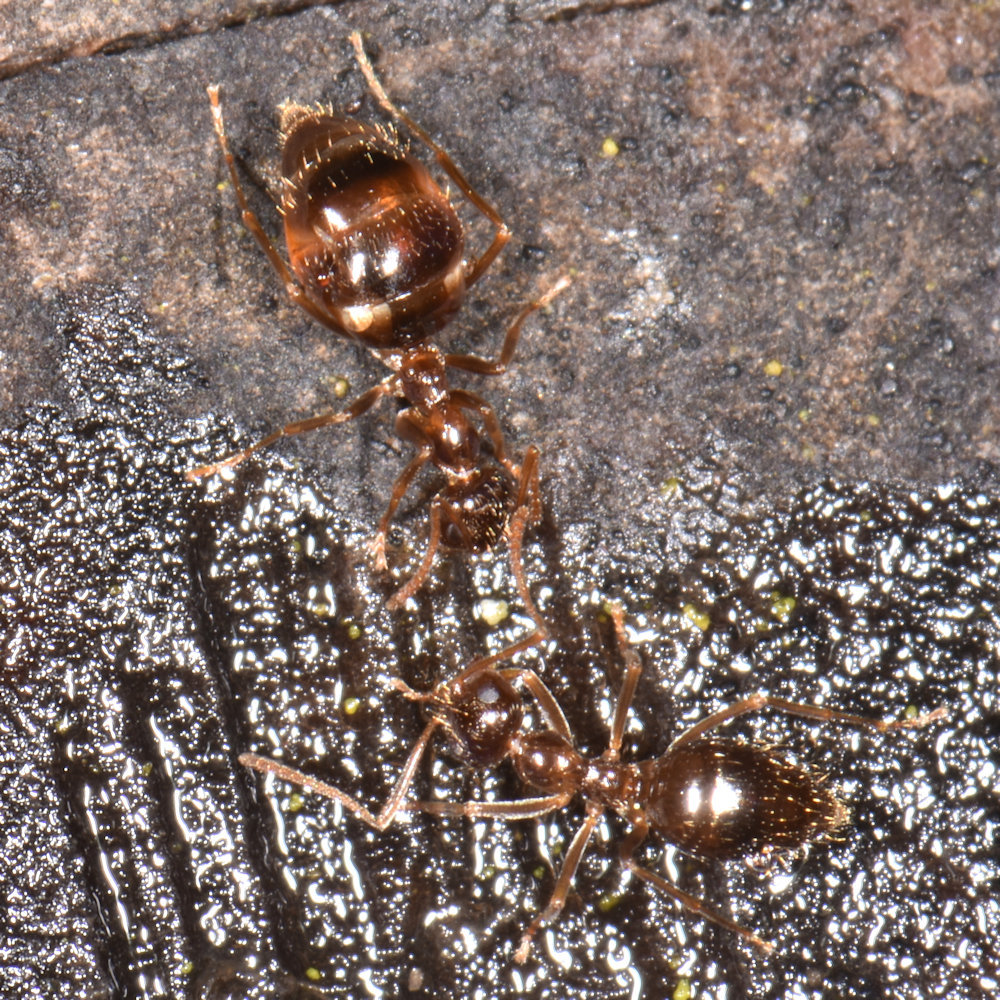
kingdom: Animalia
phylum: Arthropoda
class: Insecta
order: Hymenoptera
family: Formicidae
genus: Prenolepis
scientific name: Prenolepis imparis
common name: Small honey ant
